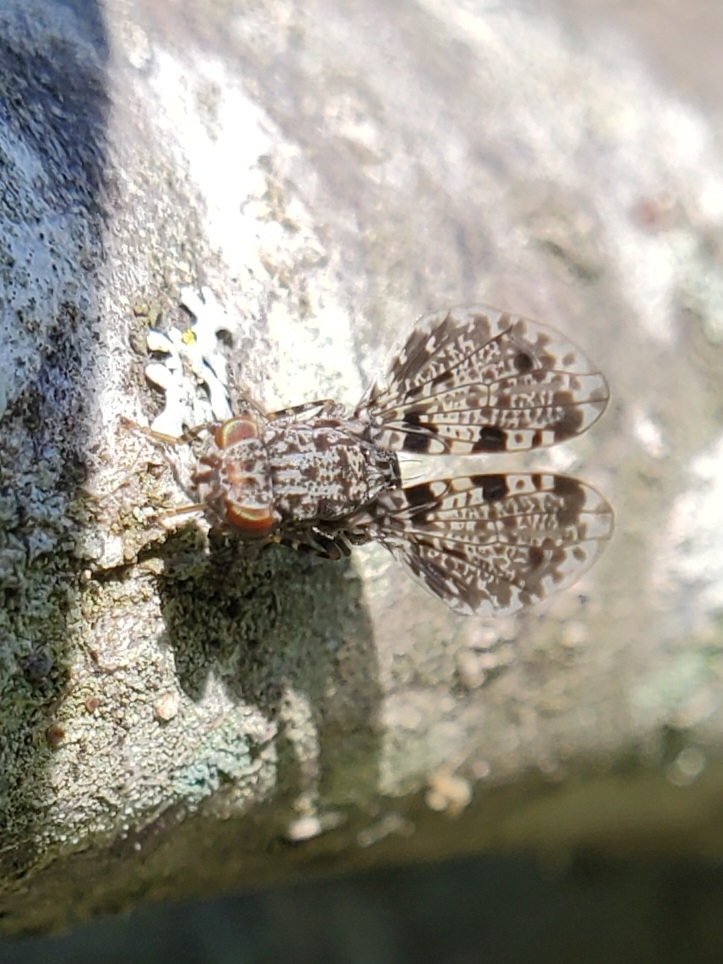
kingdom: Animalia
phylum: Arthropoda
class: Insecta
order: Diptera
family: Ulidiidae
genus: Callopistromyia
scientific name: Callopistromyia annulipes
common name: Peacock fly
